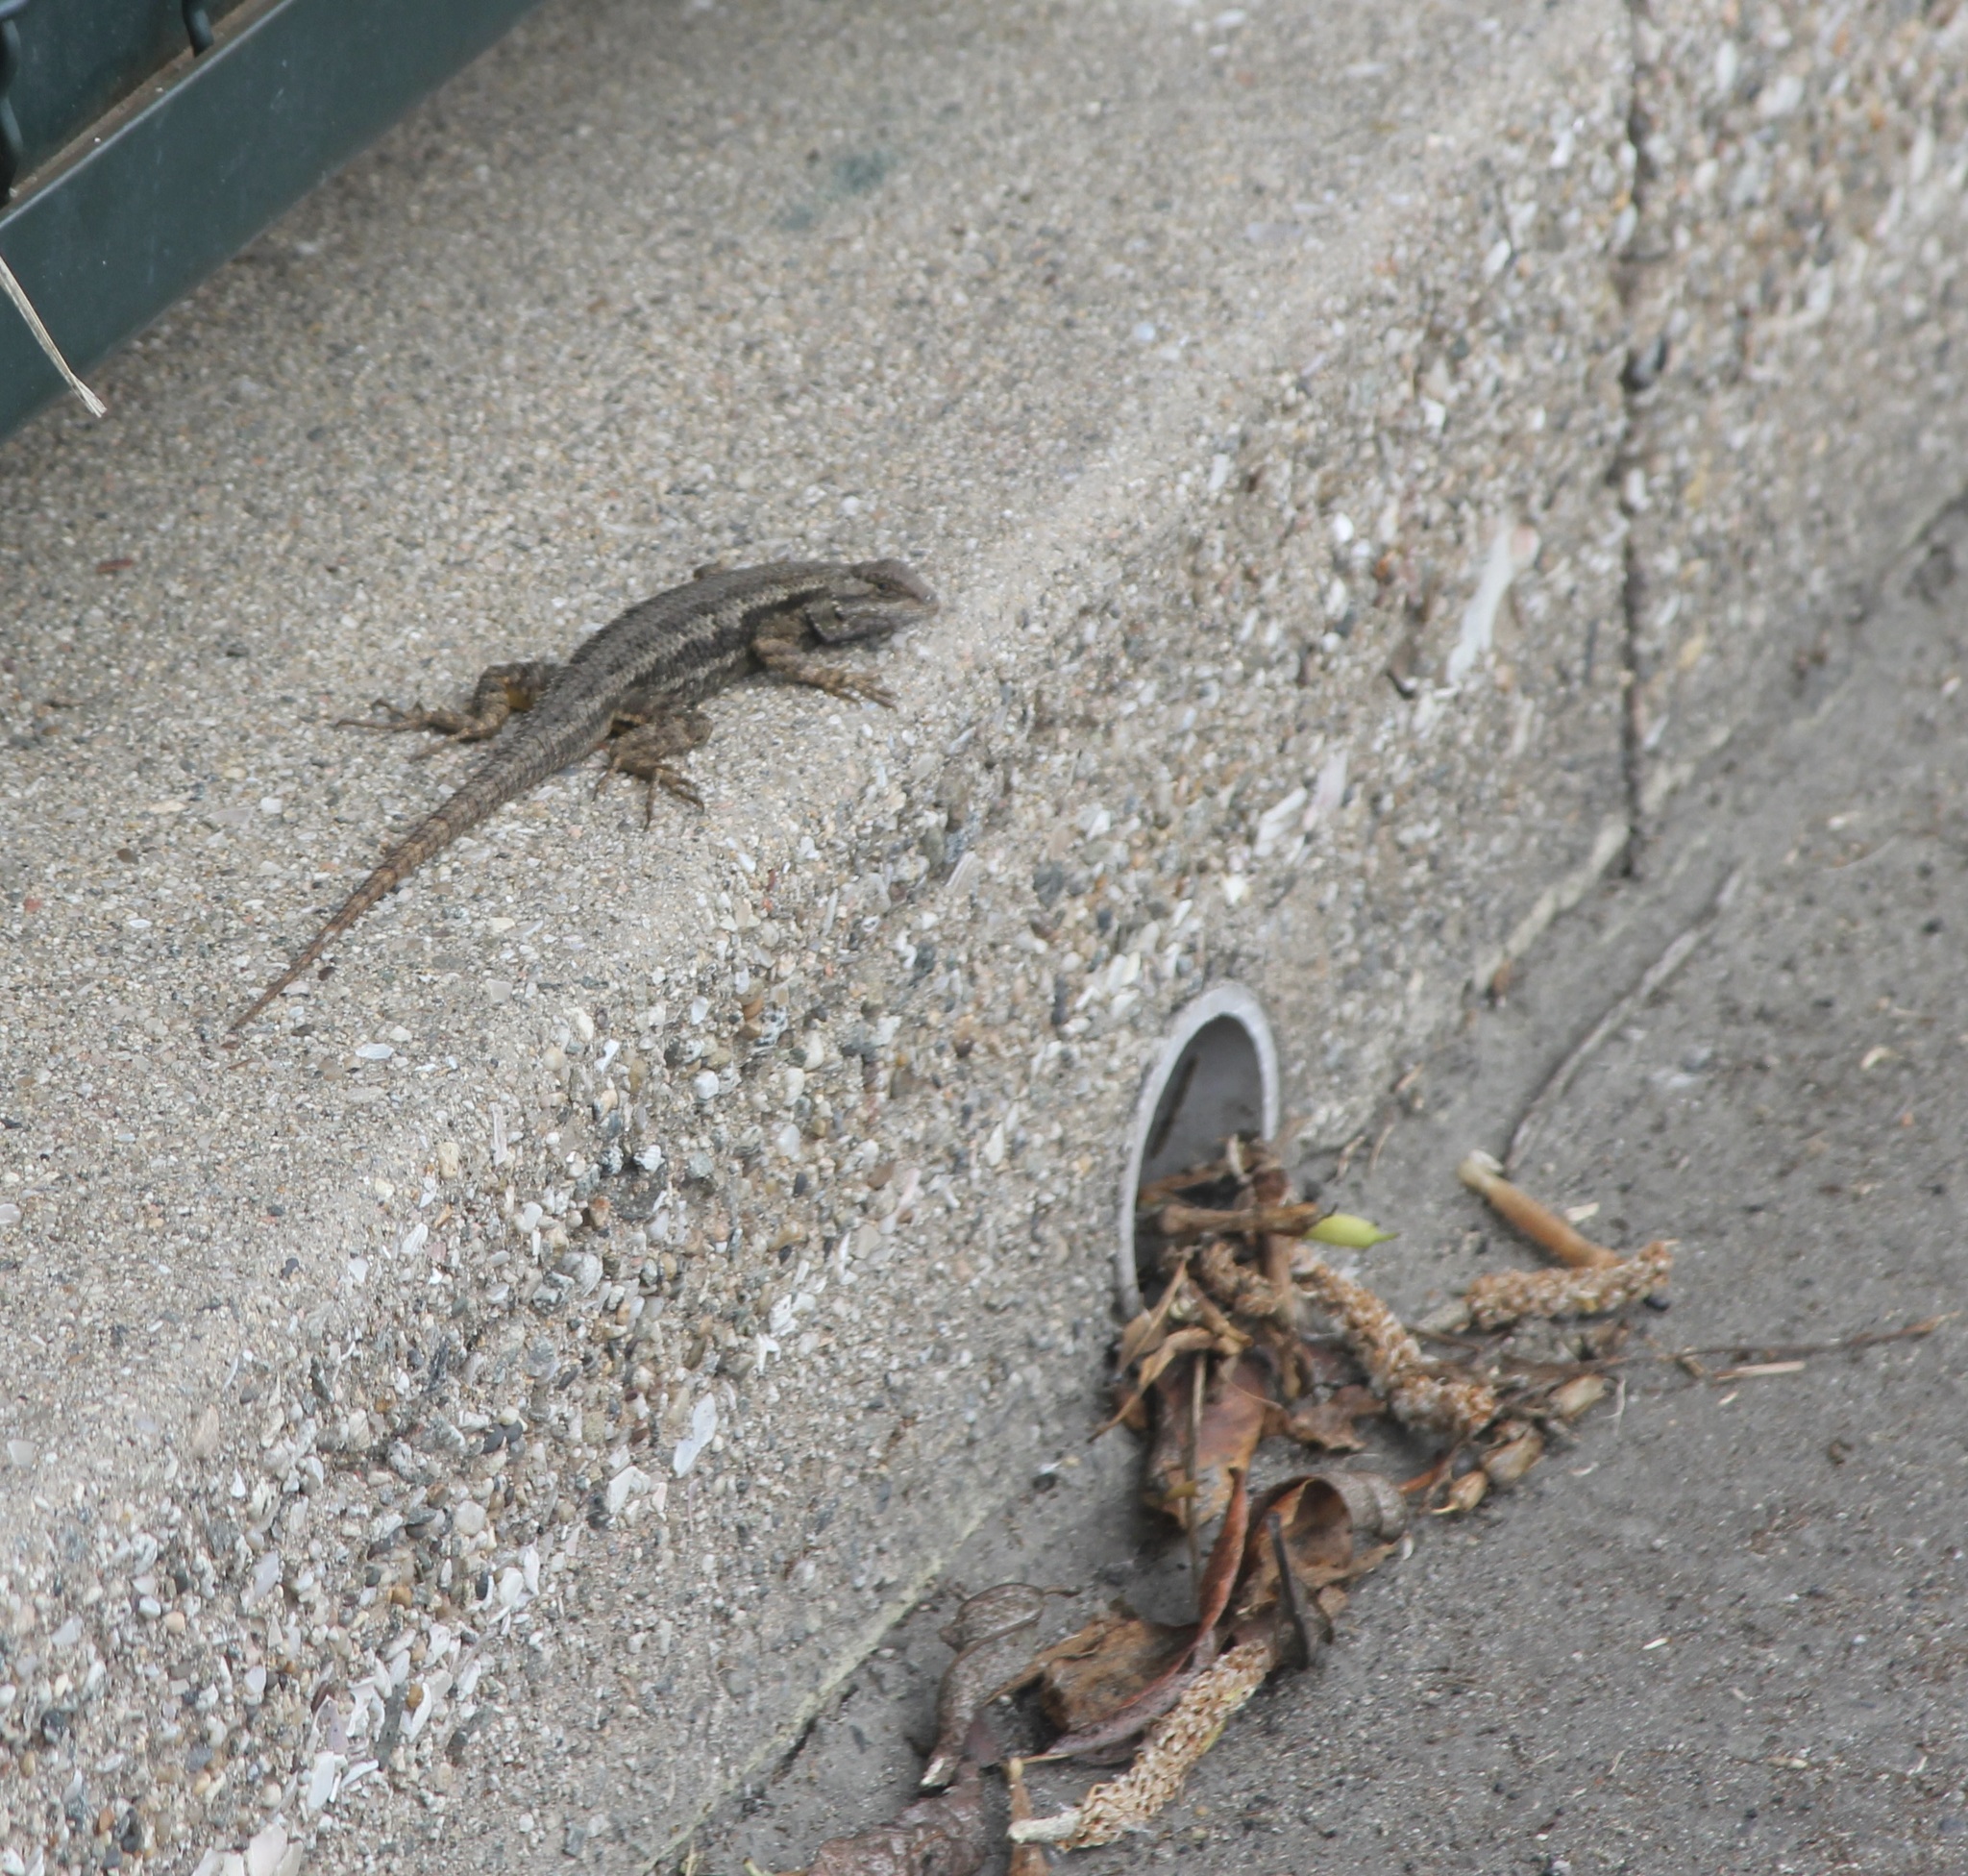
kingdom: Animalia
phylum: Chordata
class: Squamata
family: Phrynosomatidae
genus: Sceloporus
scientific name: Sceloporus occidentalis
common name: Western fence lizard
